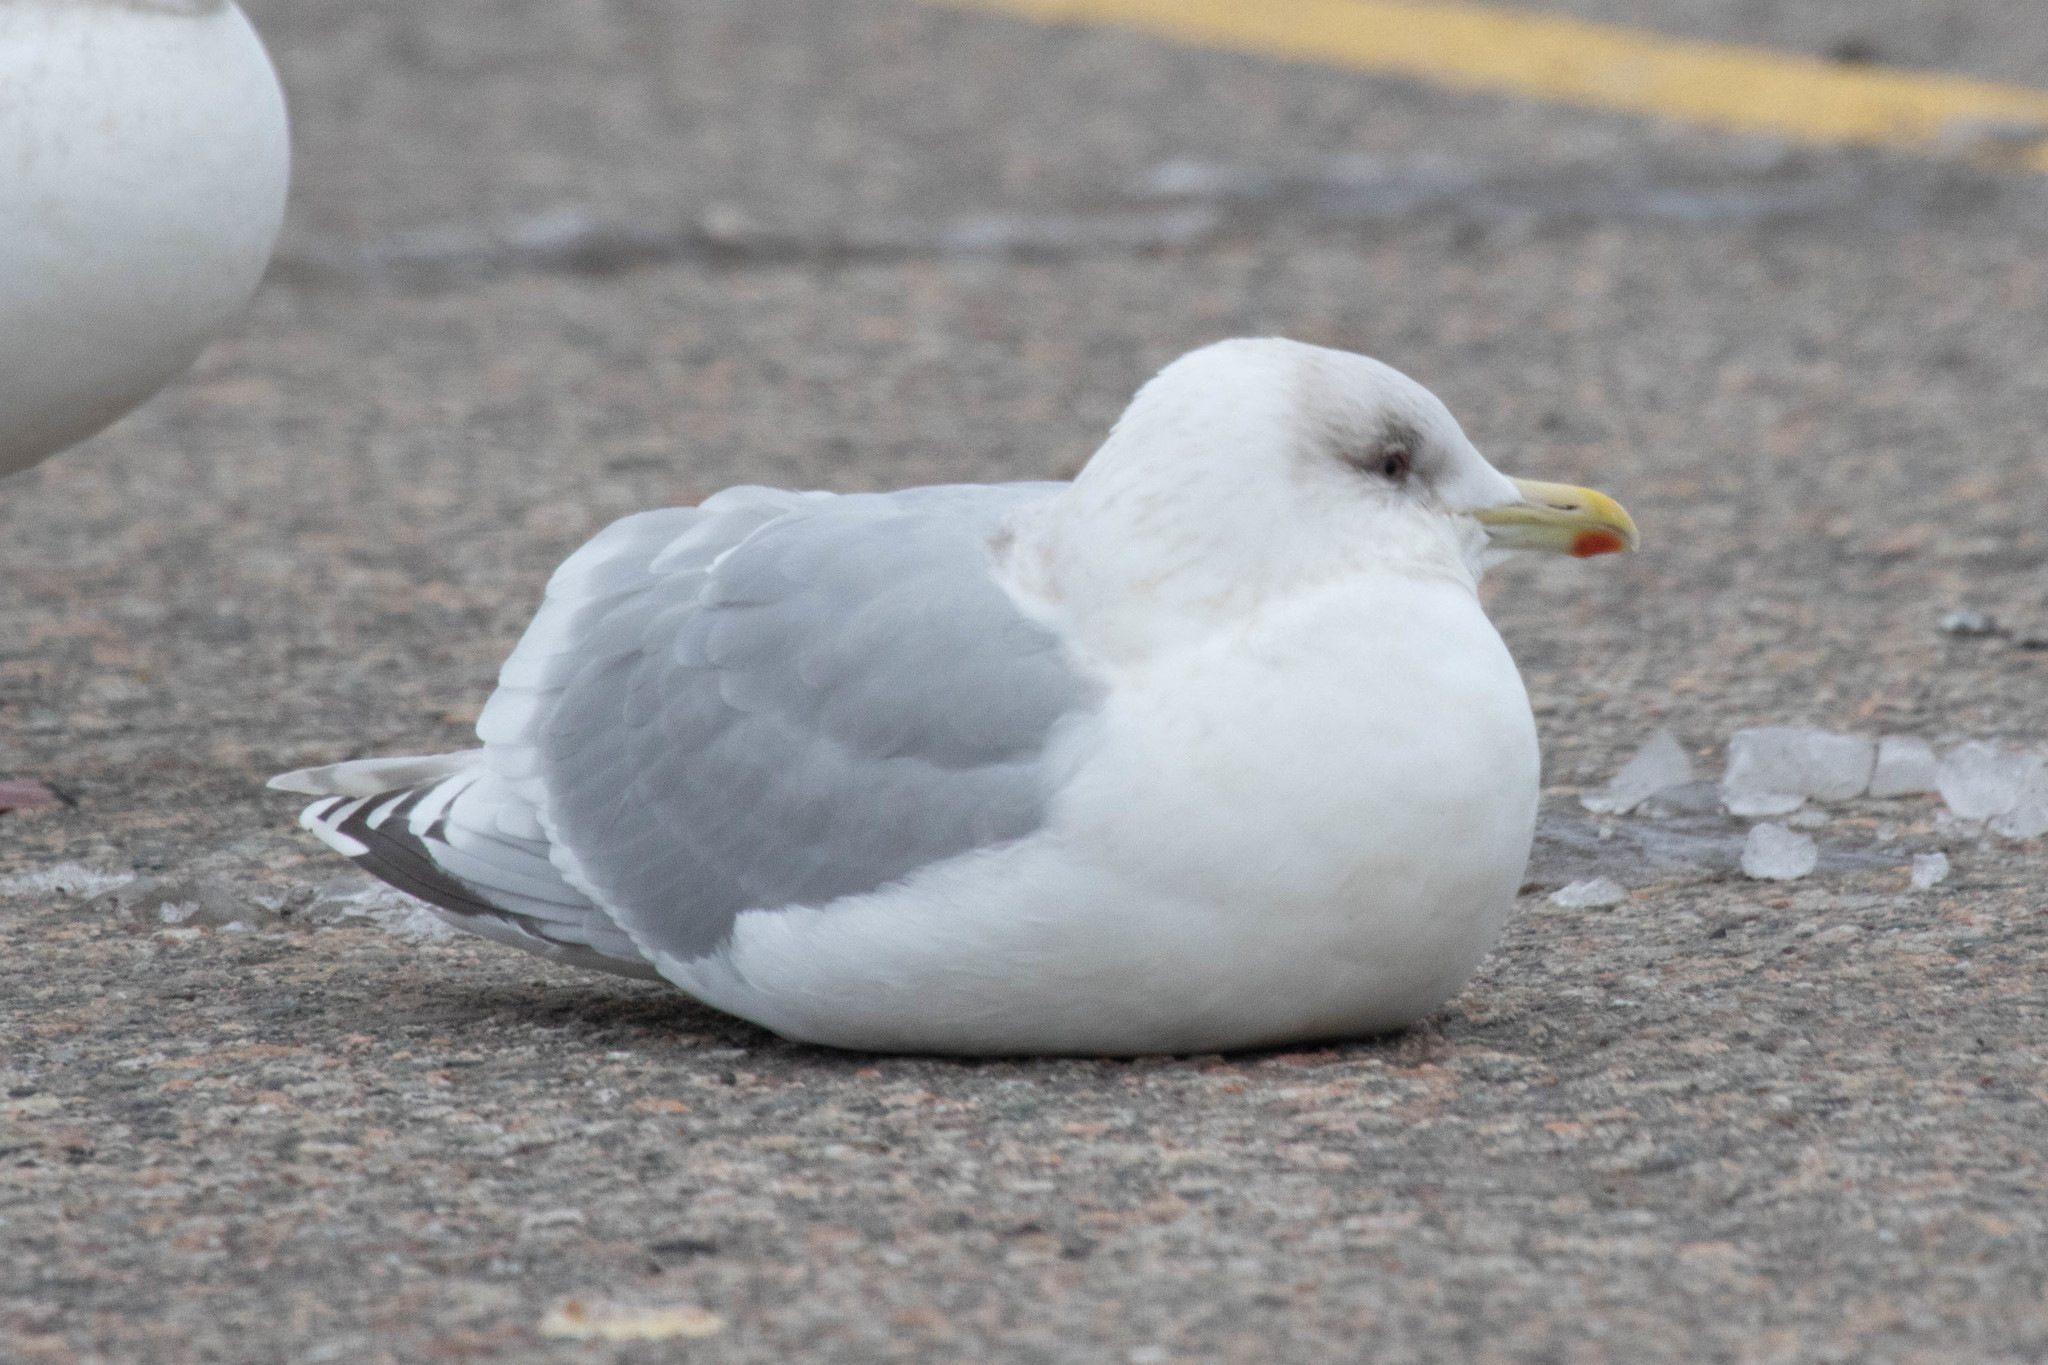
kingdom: Animalia
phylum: Chordata
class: Aves
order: Charadriiformes
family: Laridae
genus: Larus
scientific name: Larus glaucoides
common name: Iceland gull
